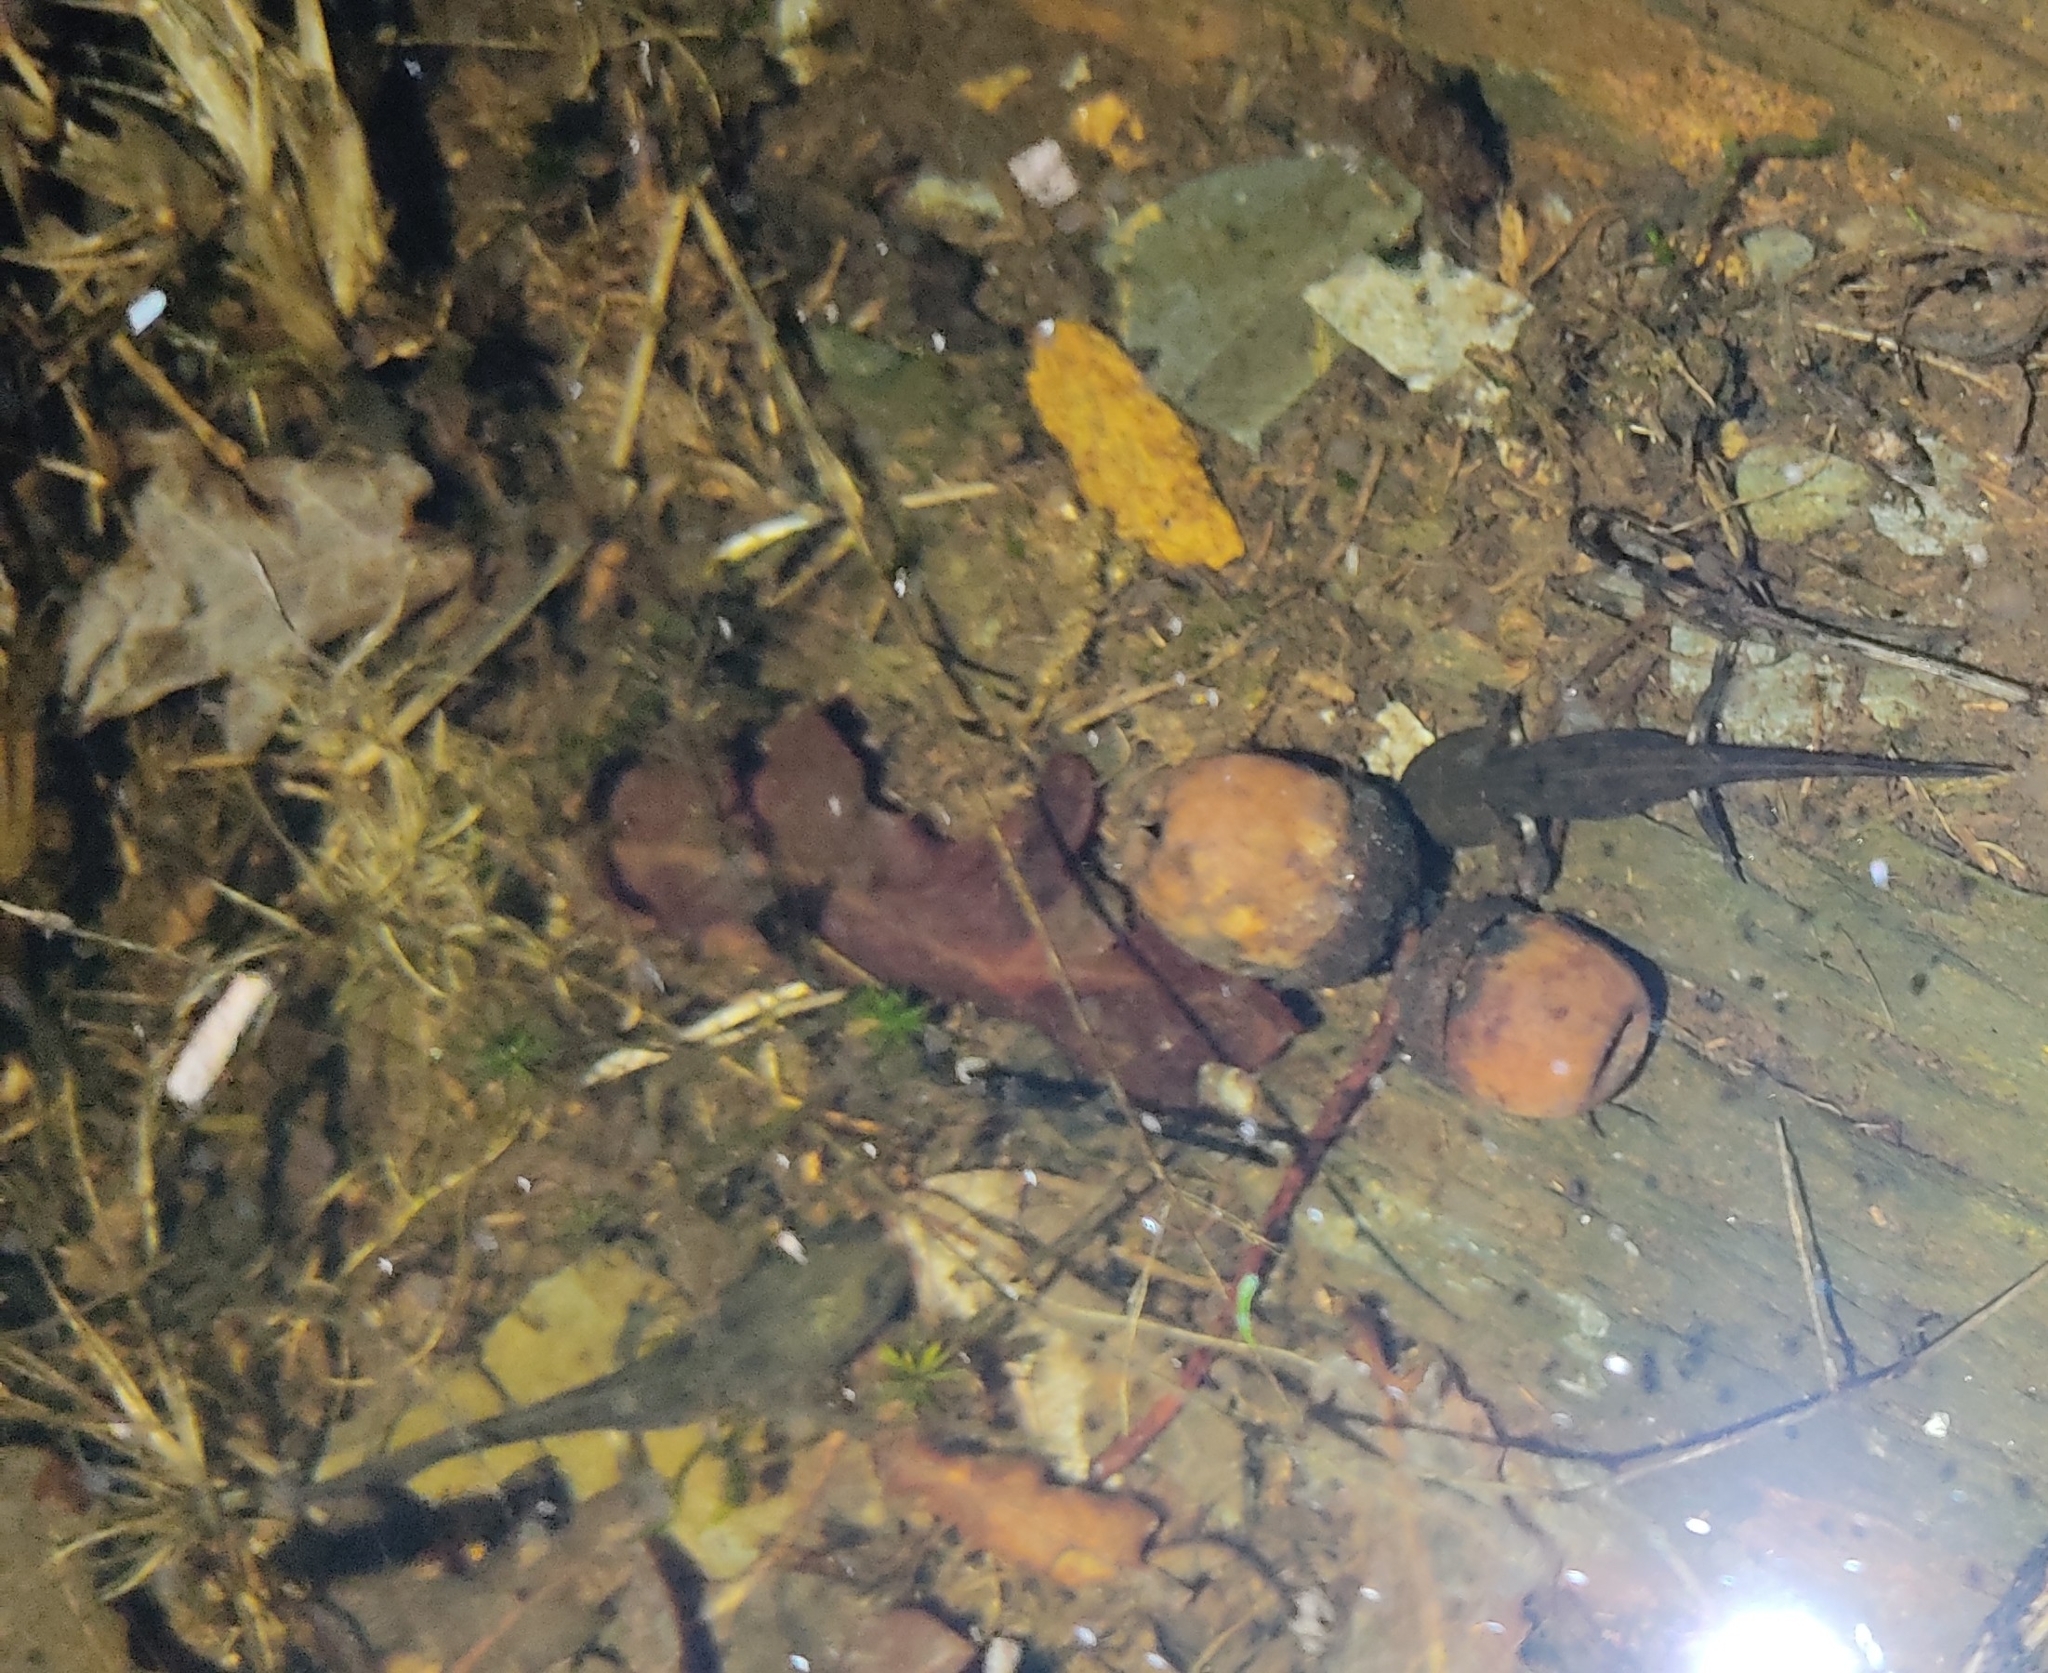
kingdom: Animalia
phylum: Chordata
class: Amphibia
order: Caudata
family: Salamandridae
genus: Salamandra
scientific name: Salamandra salamandra
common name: Fire salamander
